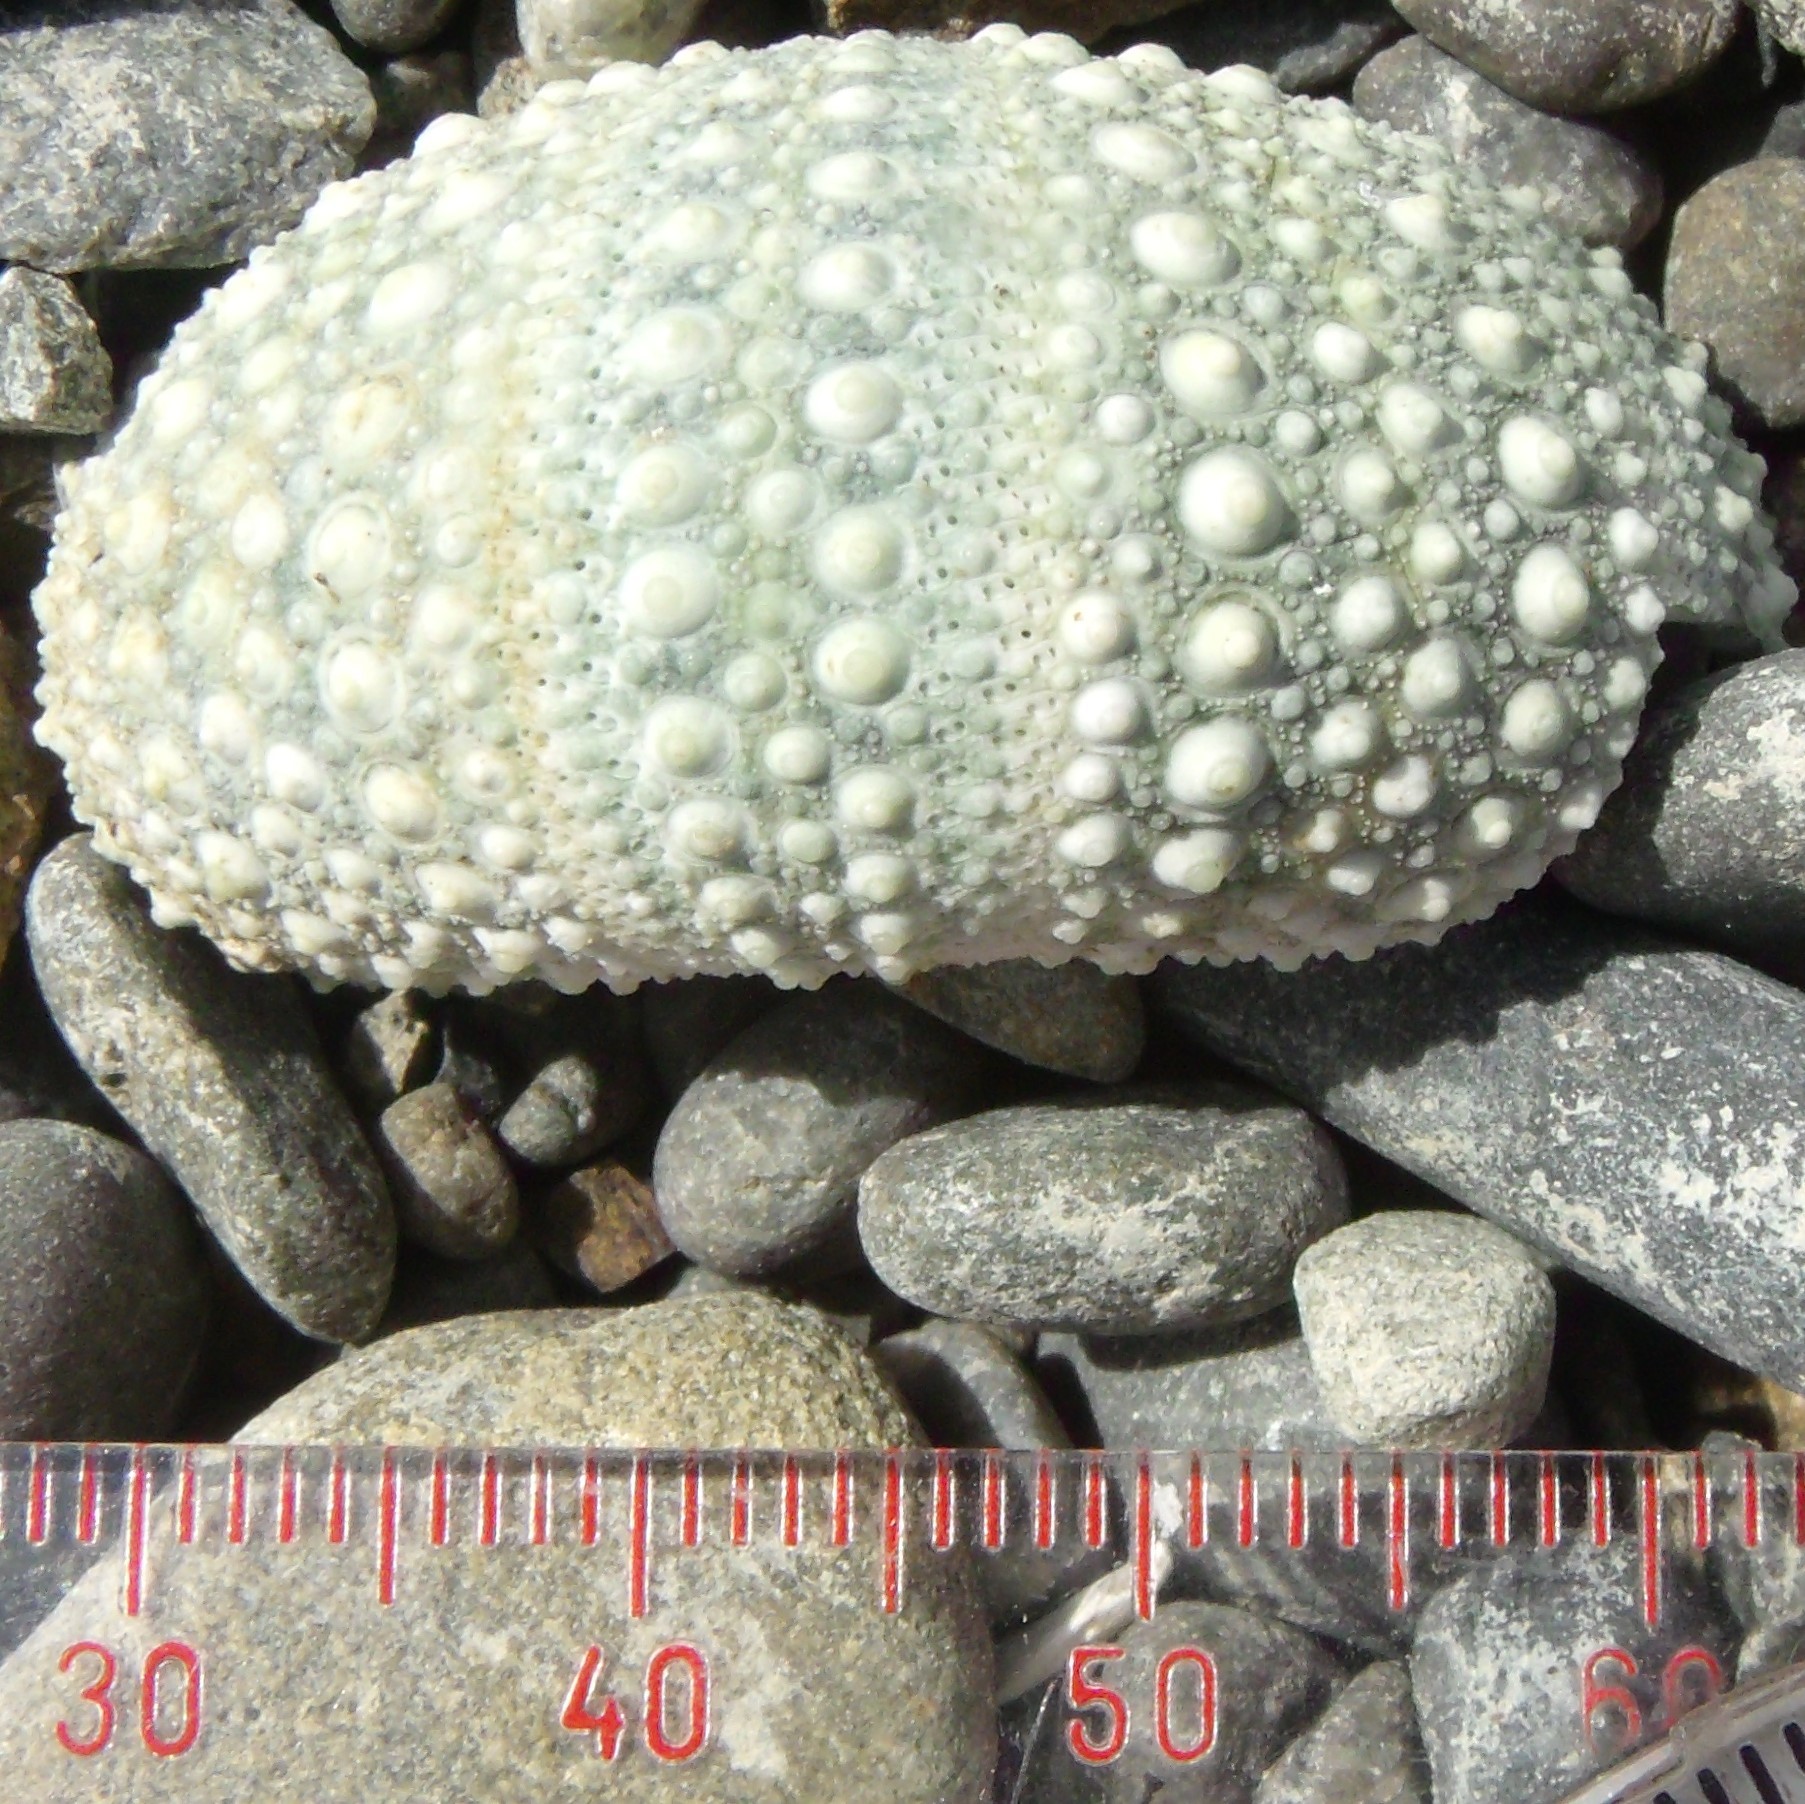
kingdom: Animalia
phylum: Echinodermata
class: Echinoidea
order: Camarodonta
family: Echinometridae
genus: Evechinus
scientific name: Evechinus chloroticus
